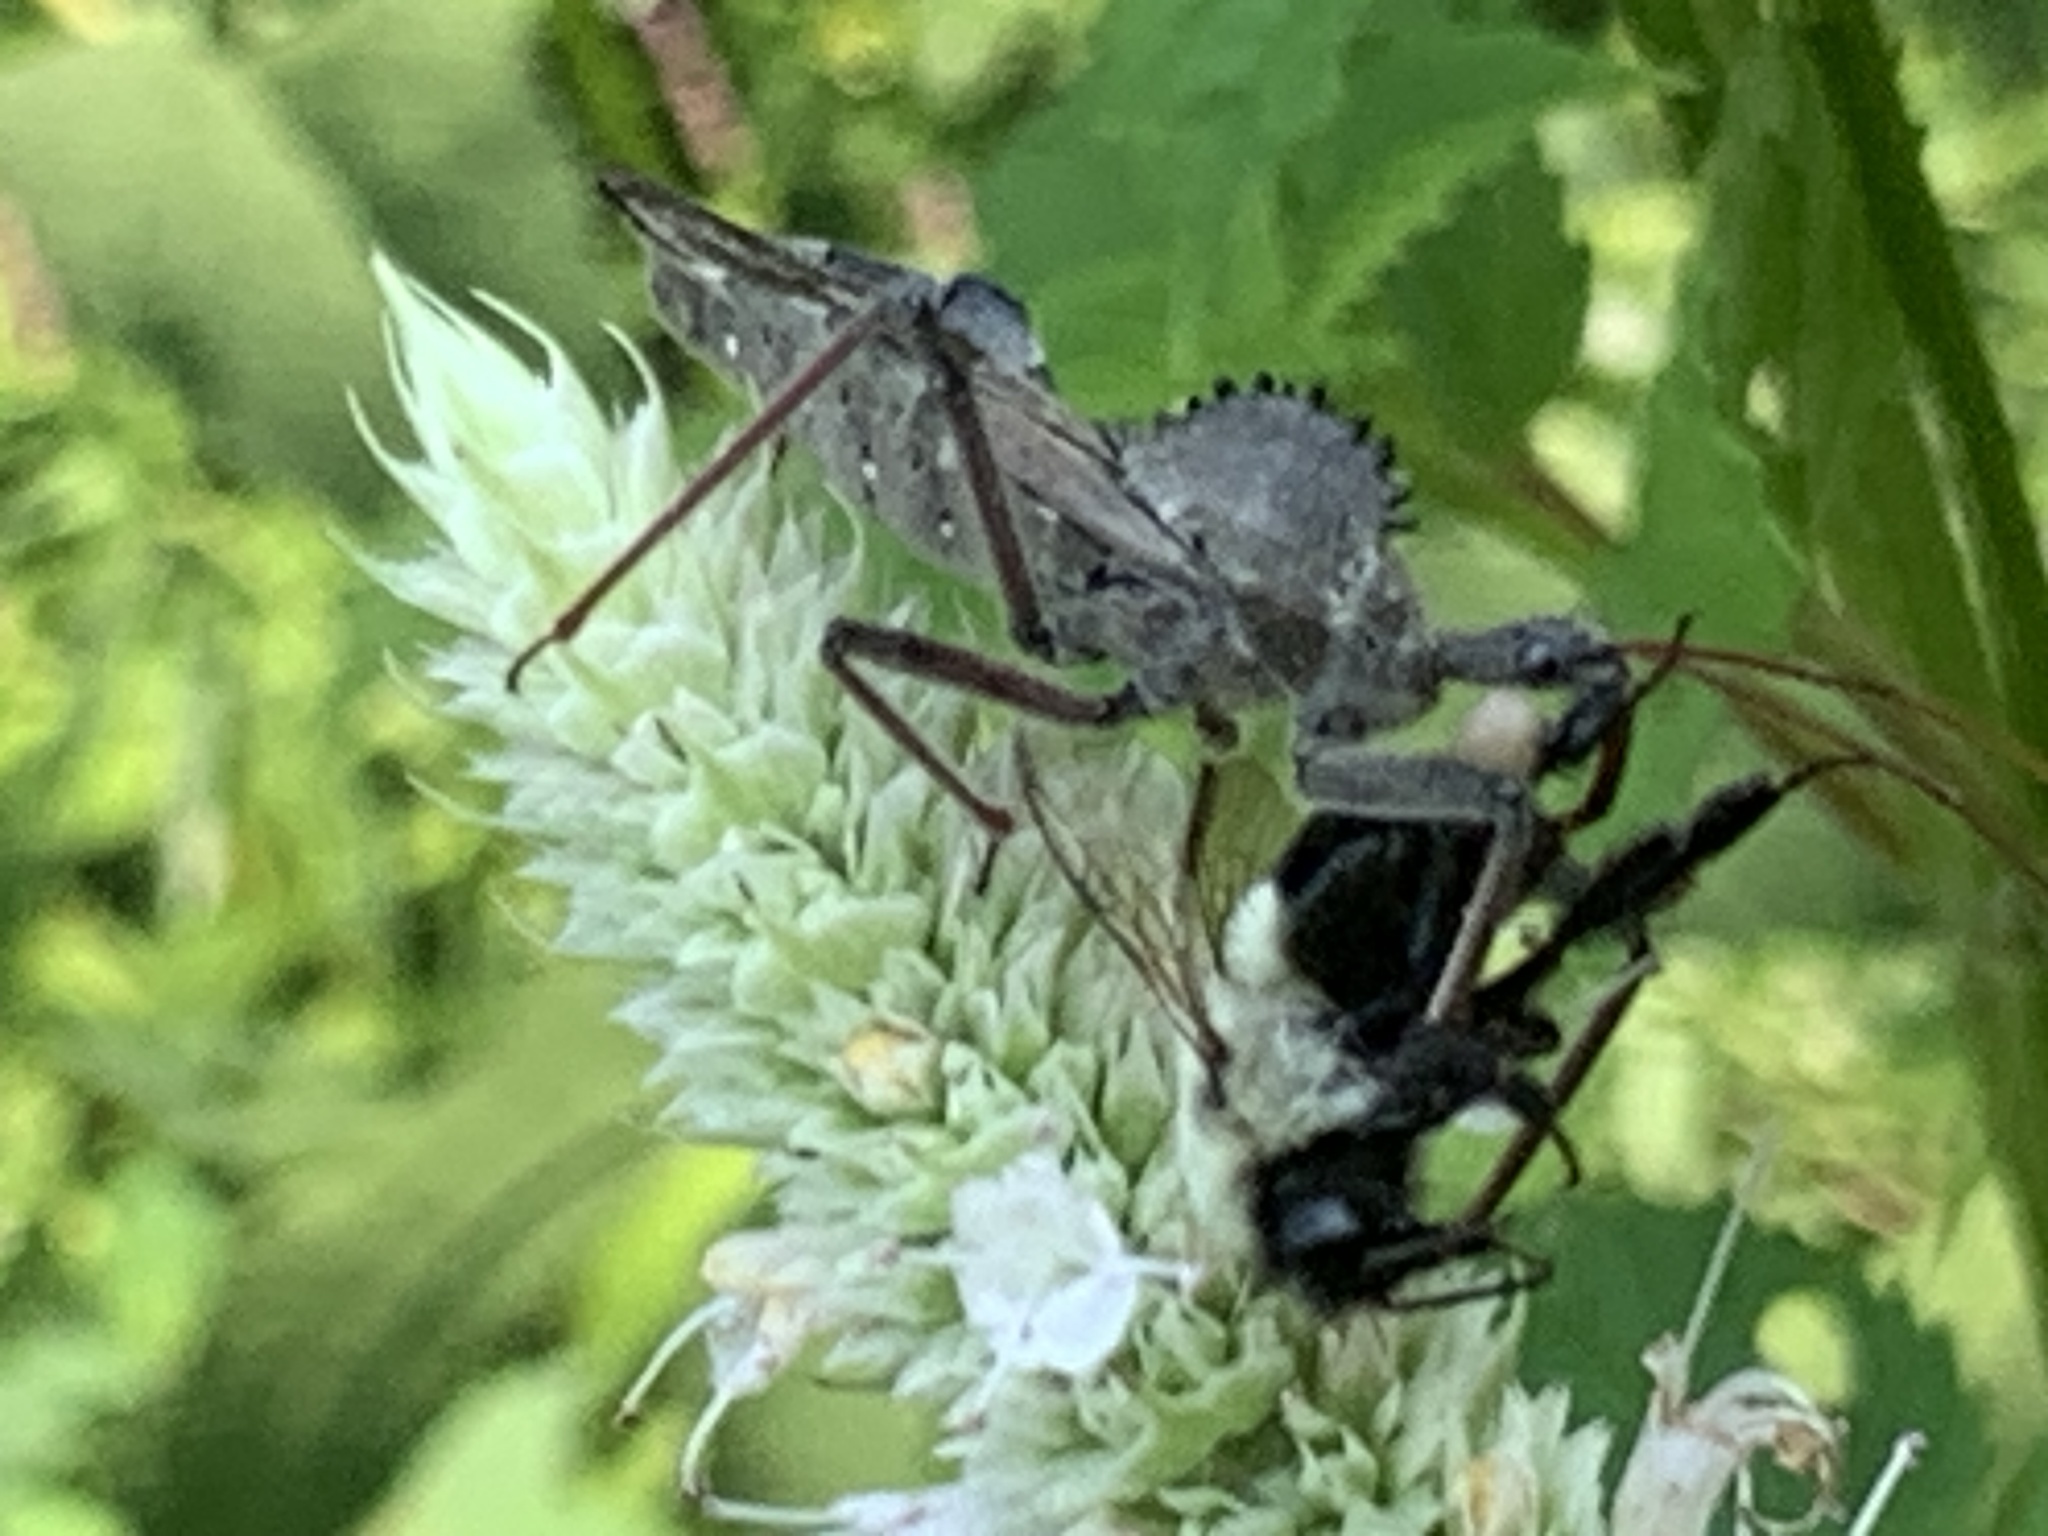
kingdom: Animalia
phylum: Arthropoda
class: Insecta
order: Hymenoptera
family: Apidae
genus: Bombus
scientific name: Bombus impatiens
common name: Common eastern bumble bee
